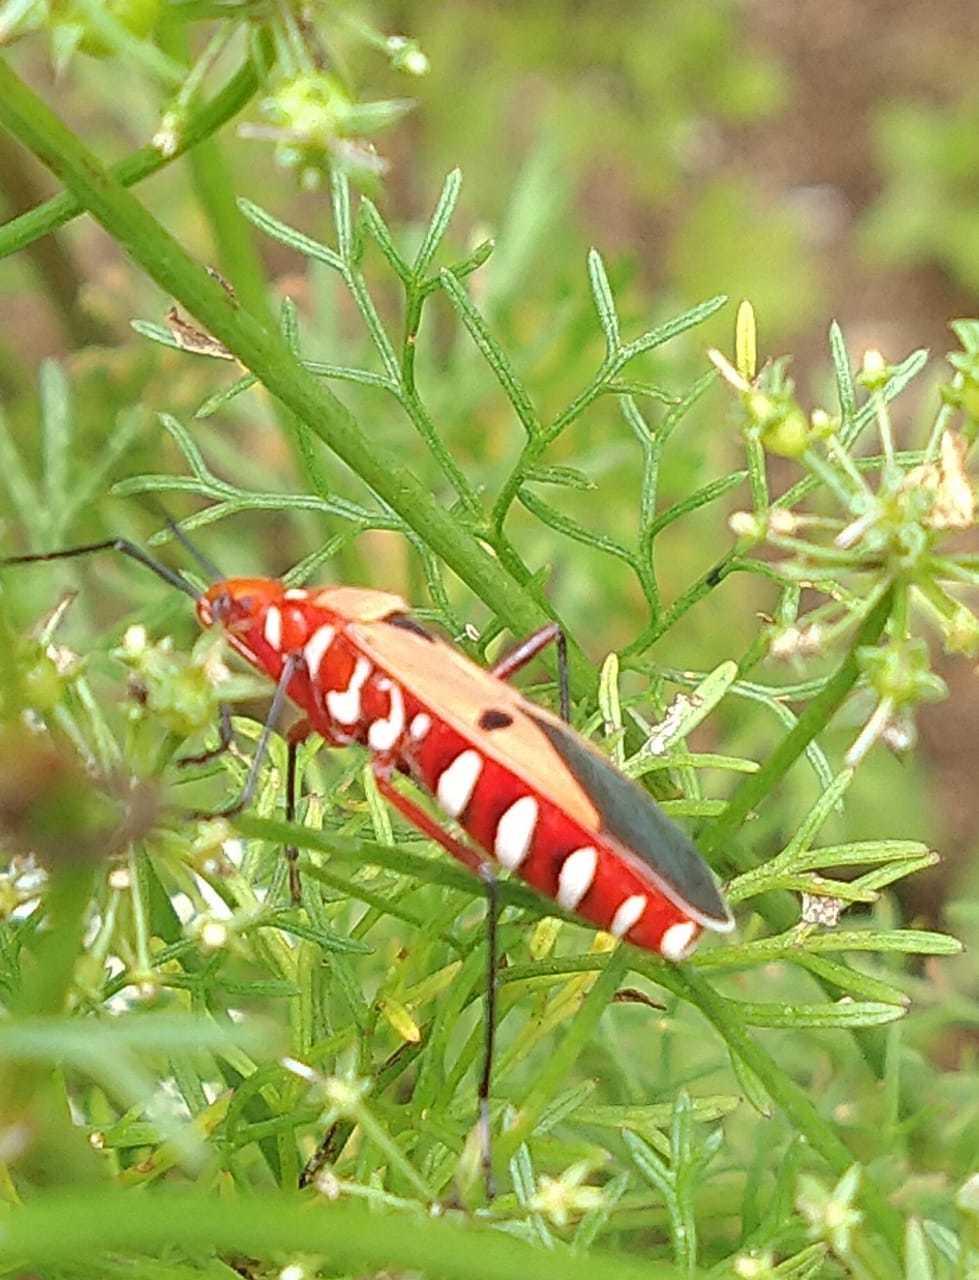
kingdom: Animalia
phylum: Arthropoda
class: Insecta
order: Hemiptera
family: Pyrrhocoridae
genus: Dysdercus
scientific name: Dysdercus koenigii
